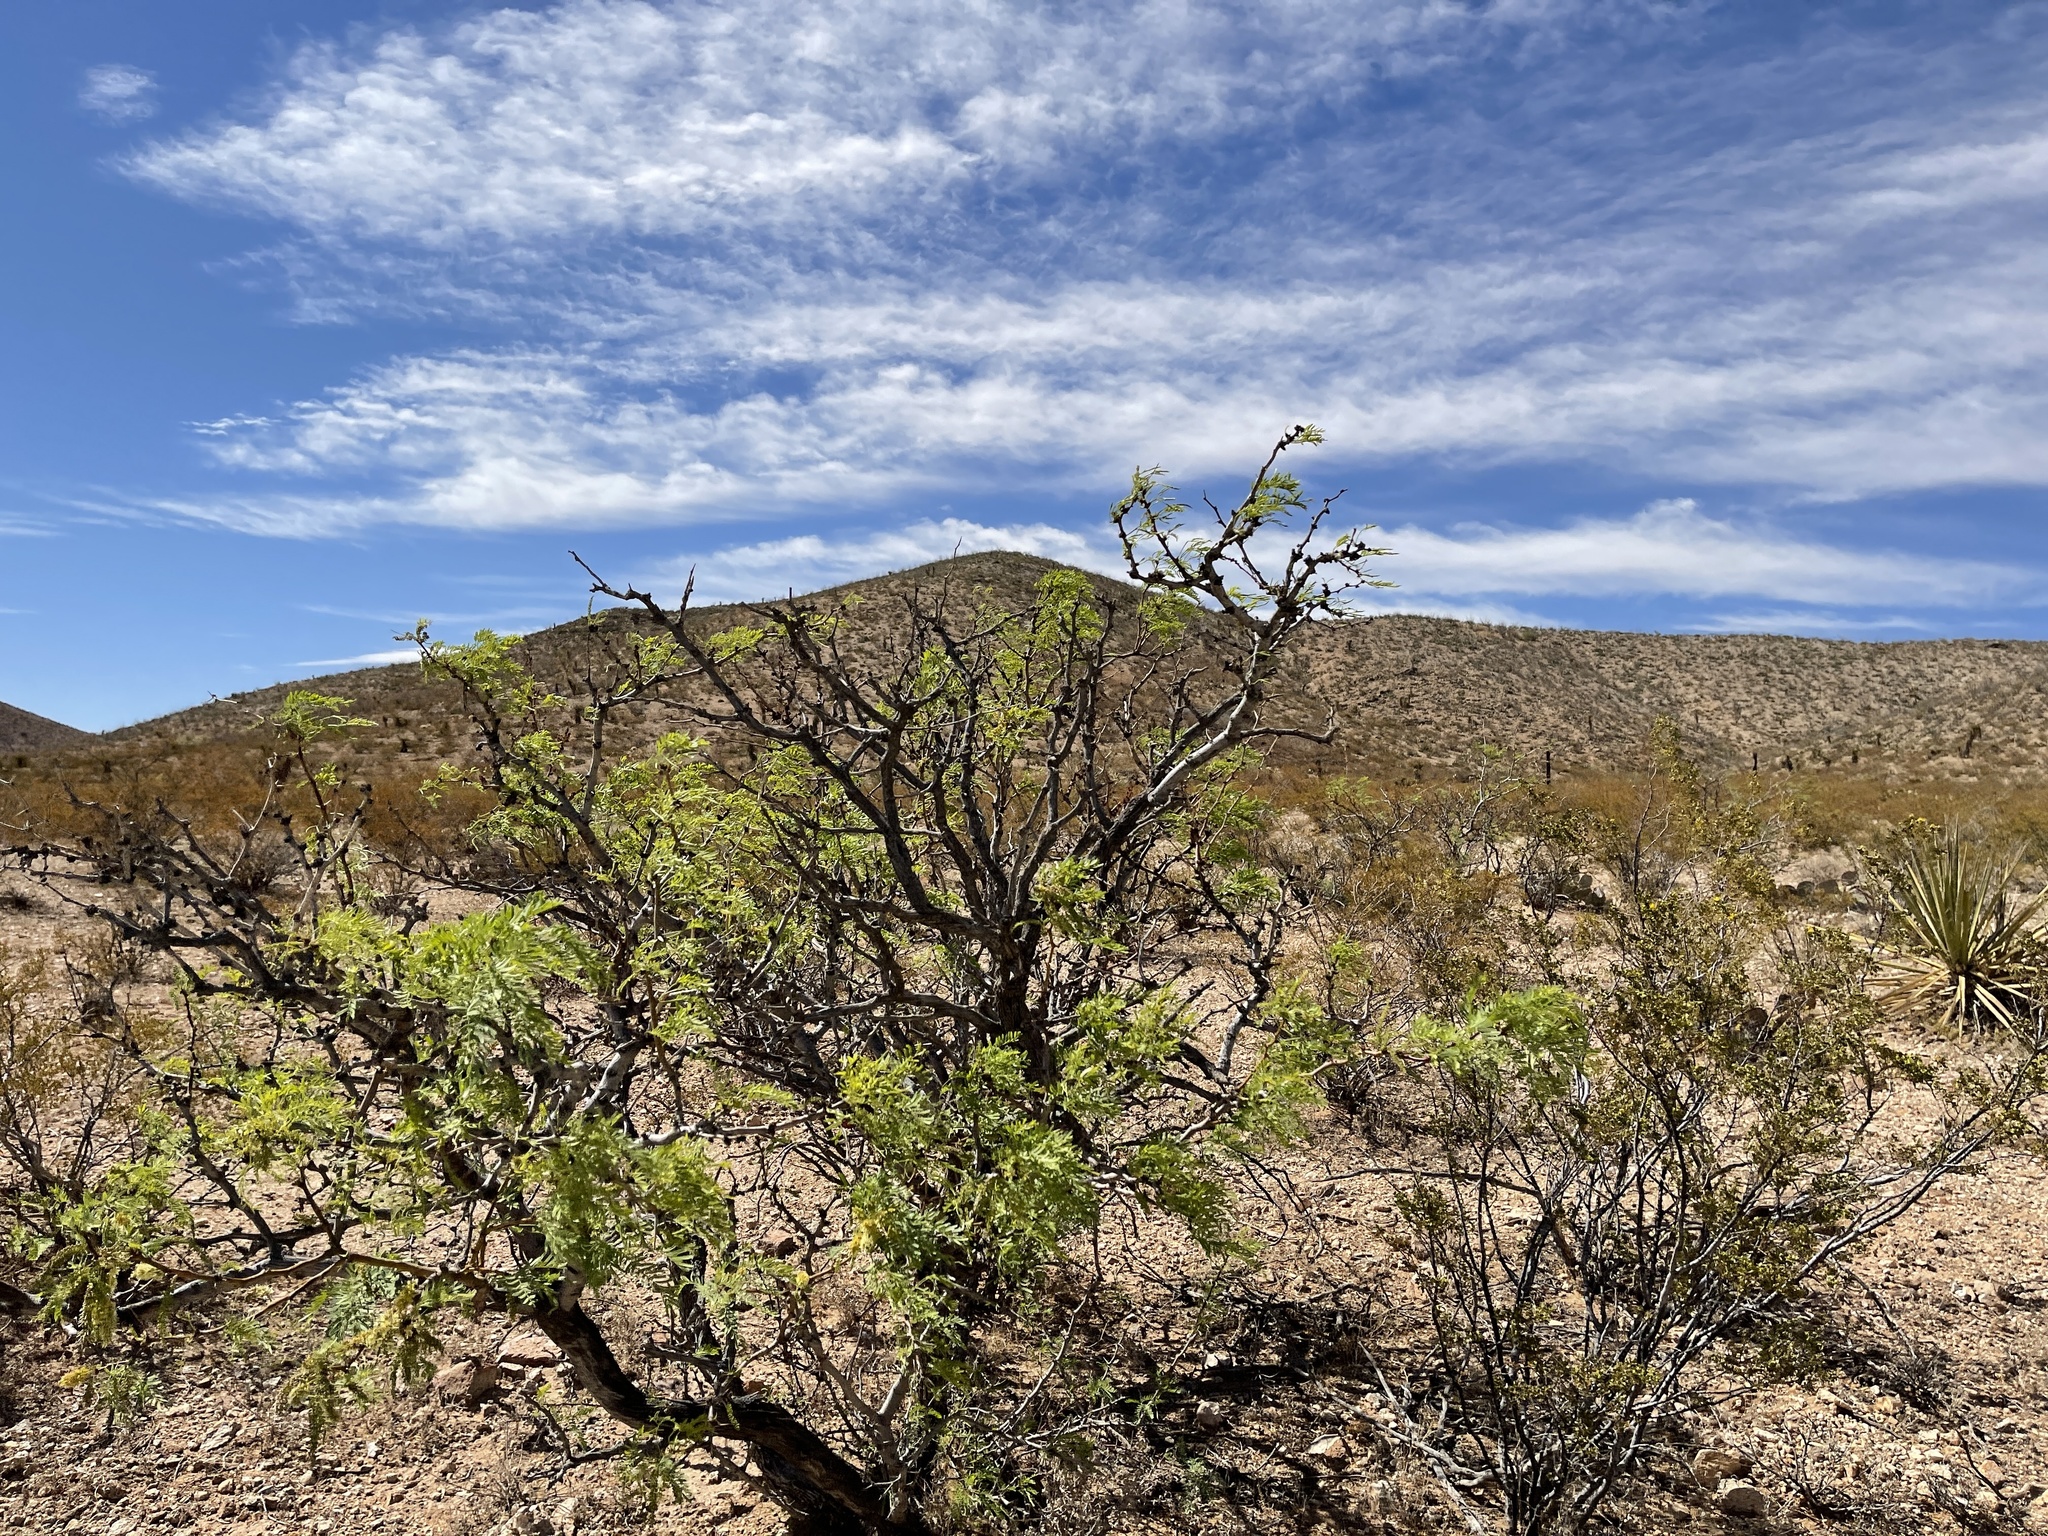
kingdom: Plantae
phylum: Tracheophyta
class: Magnoliopsida
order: Fabales
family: Fabaceae
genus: Prosopis
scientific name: Prosopis glandulosa
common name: Honey mesquite
